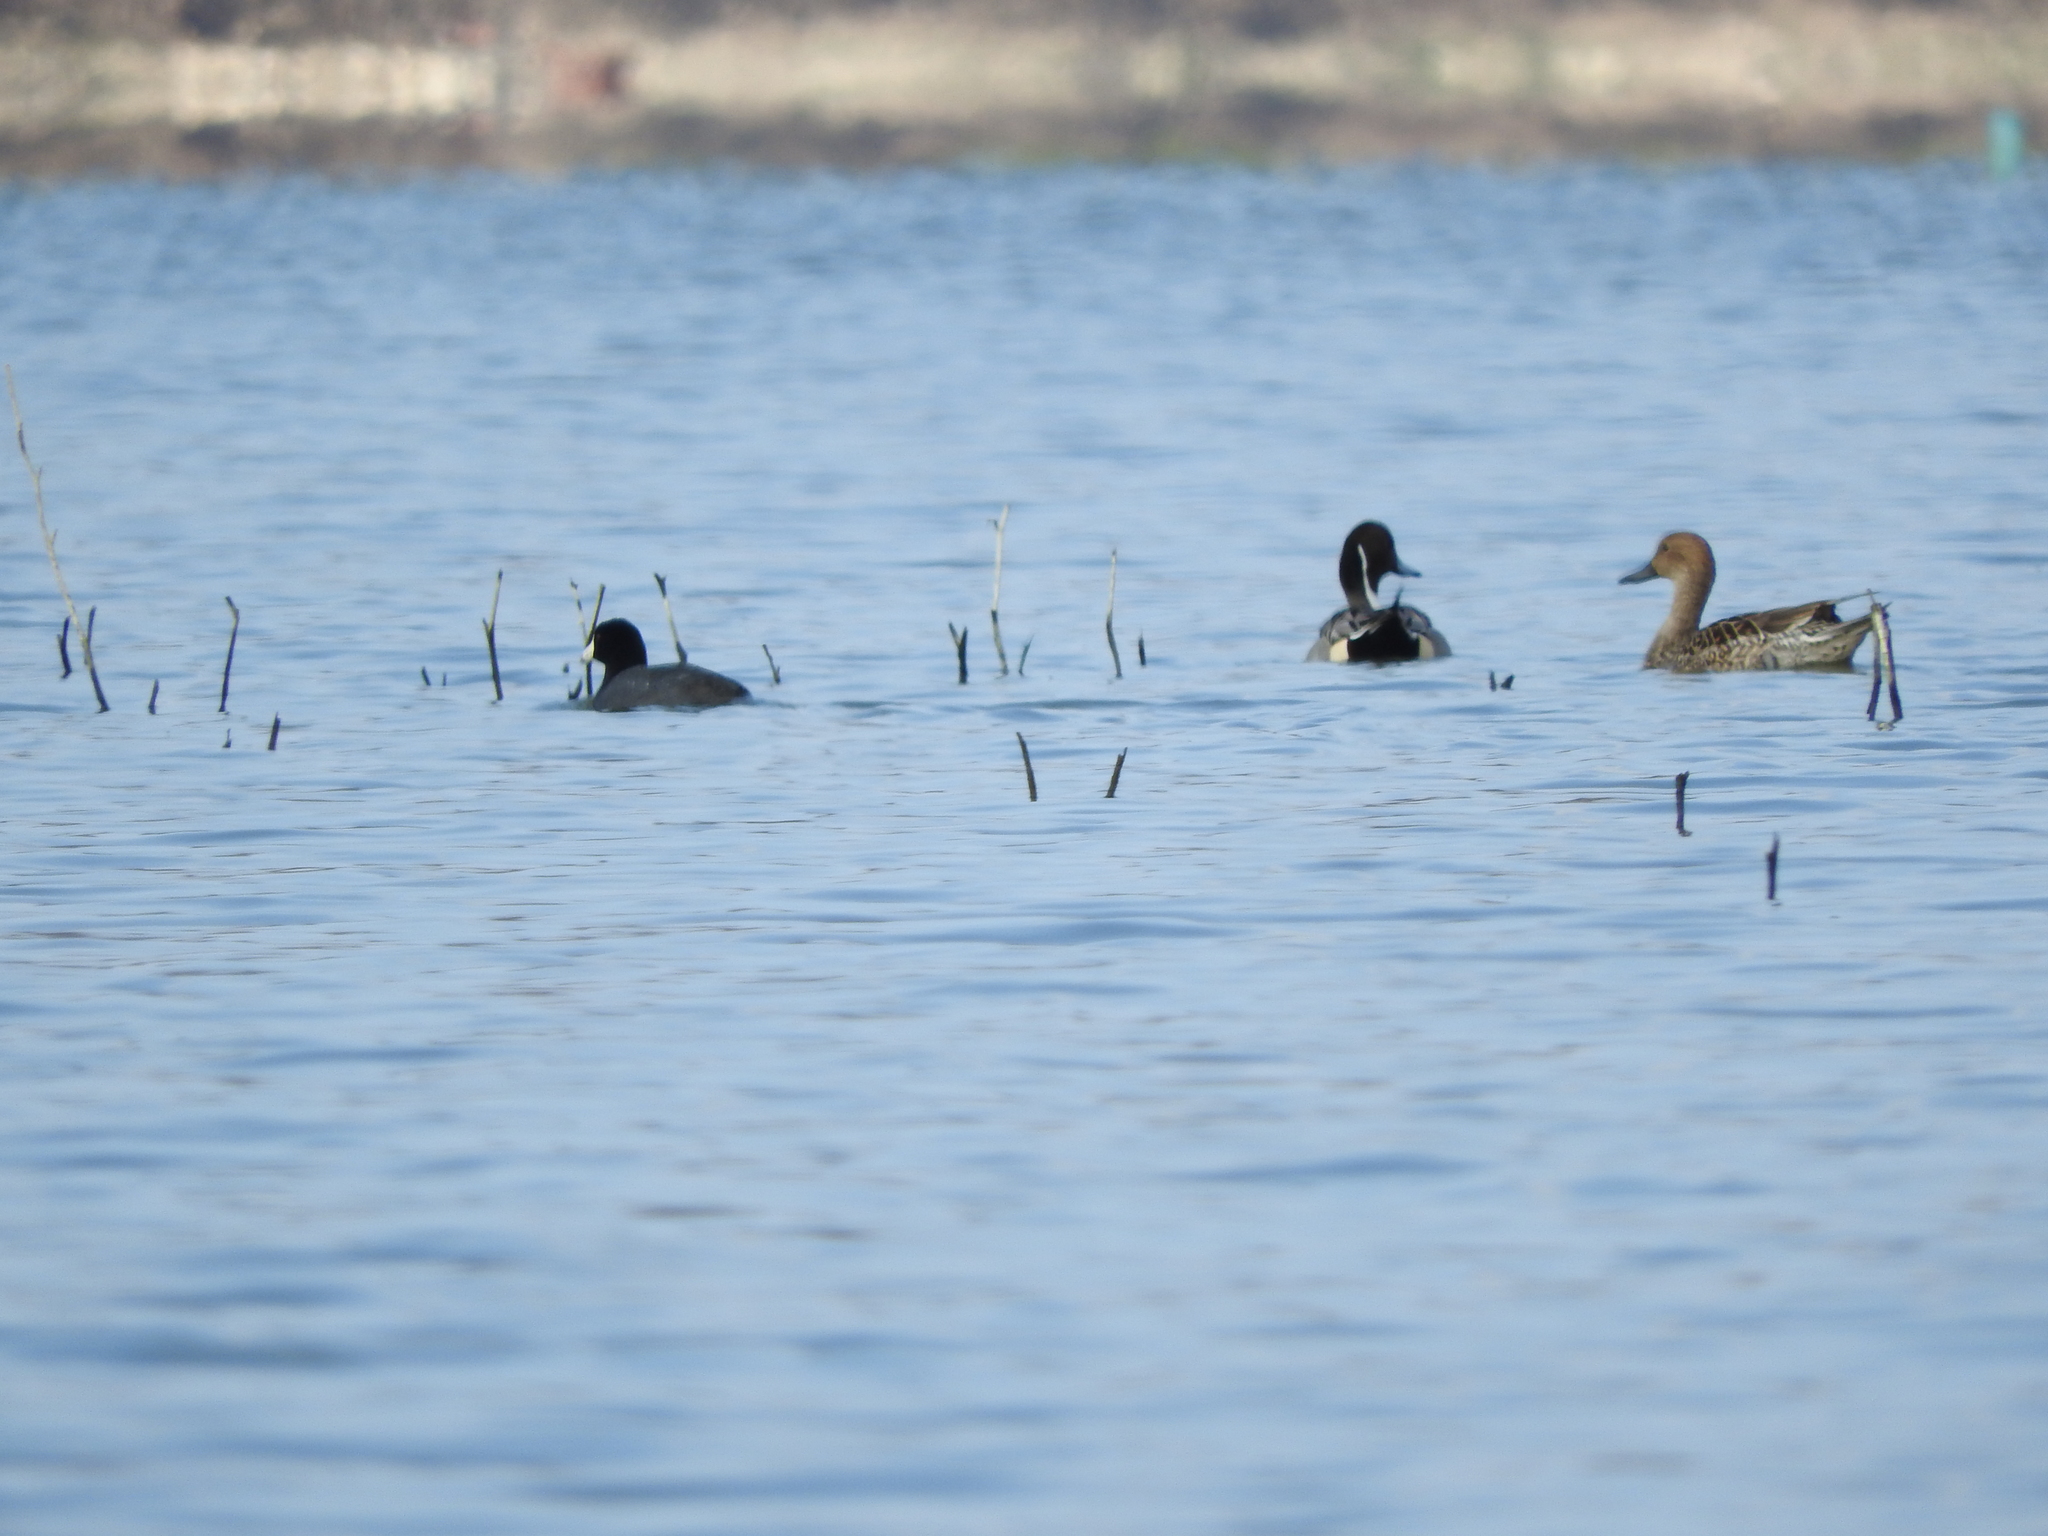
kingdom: Animalia
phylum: Chordata
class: Aves
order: Anseriformes
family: Anatidae
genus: Anas
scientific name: Anas acuta
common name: Northern pintail
